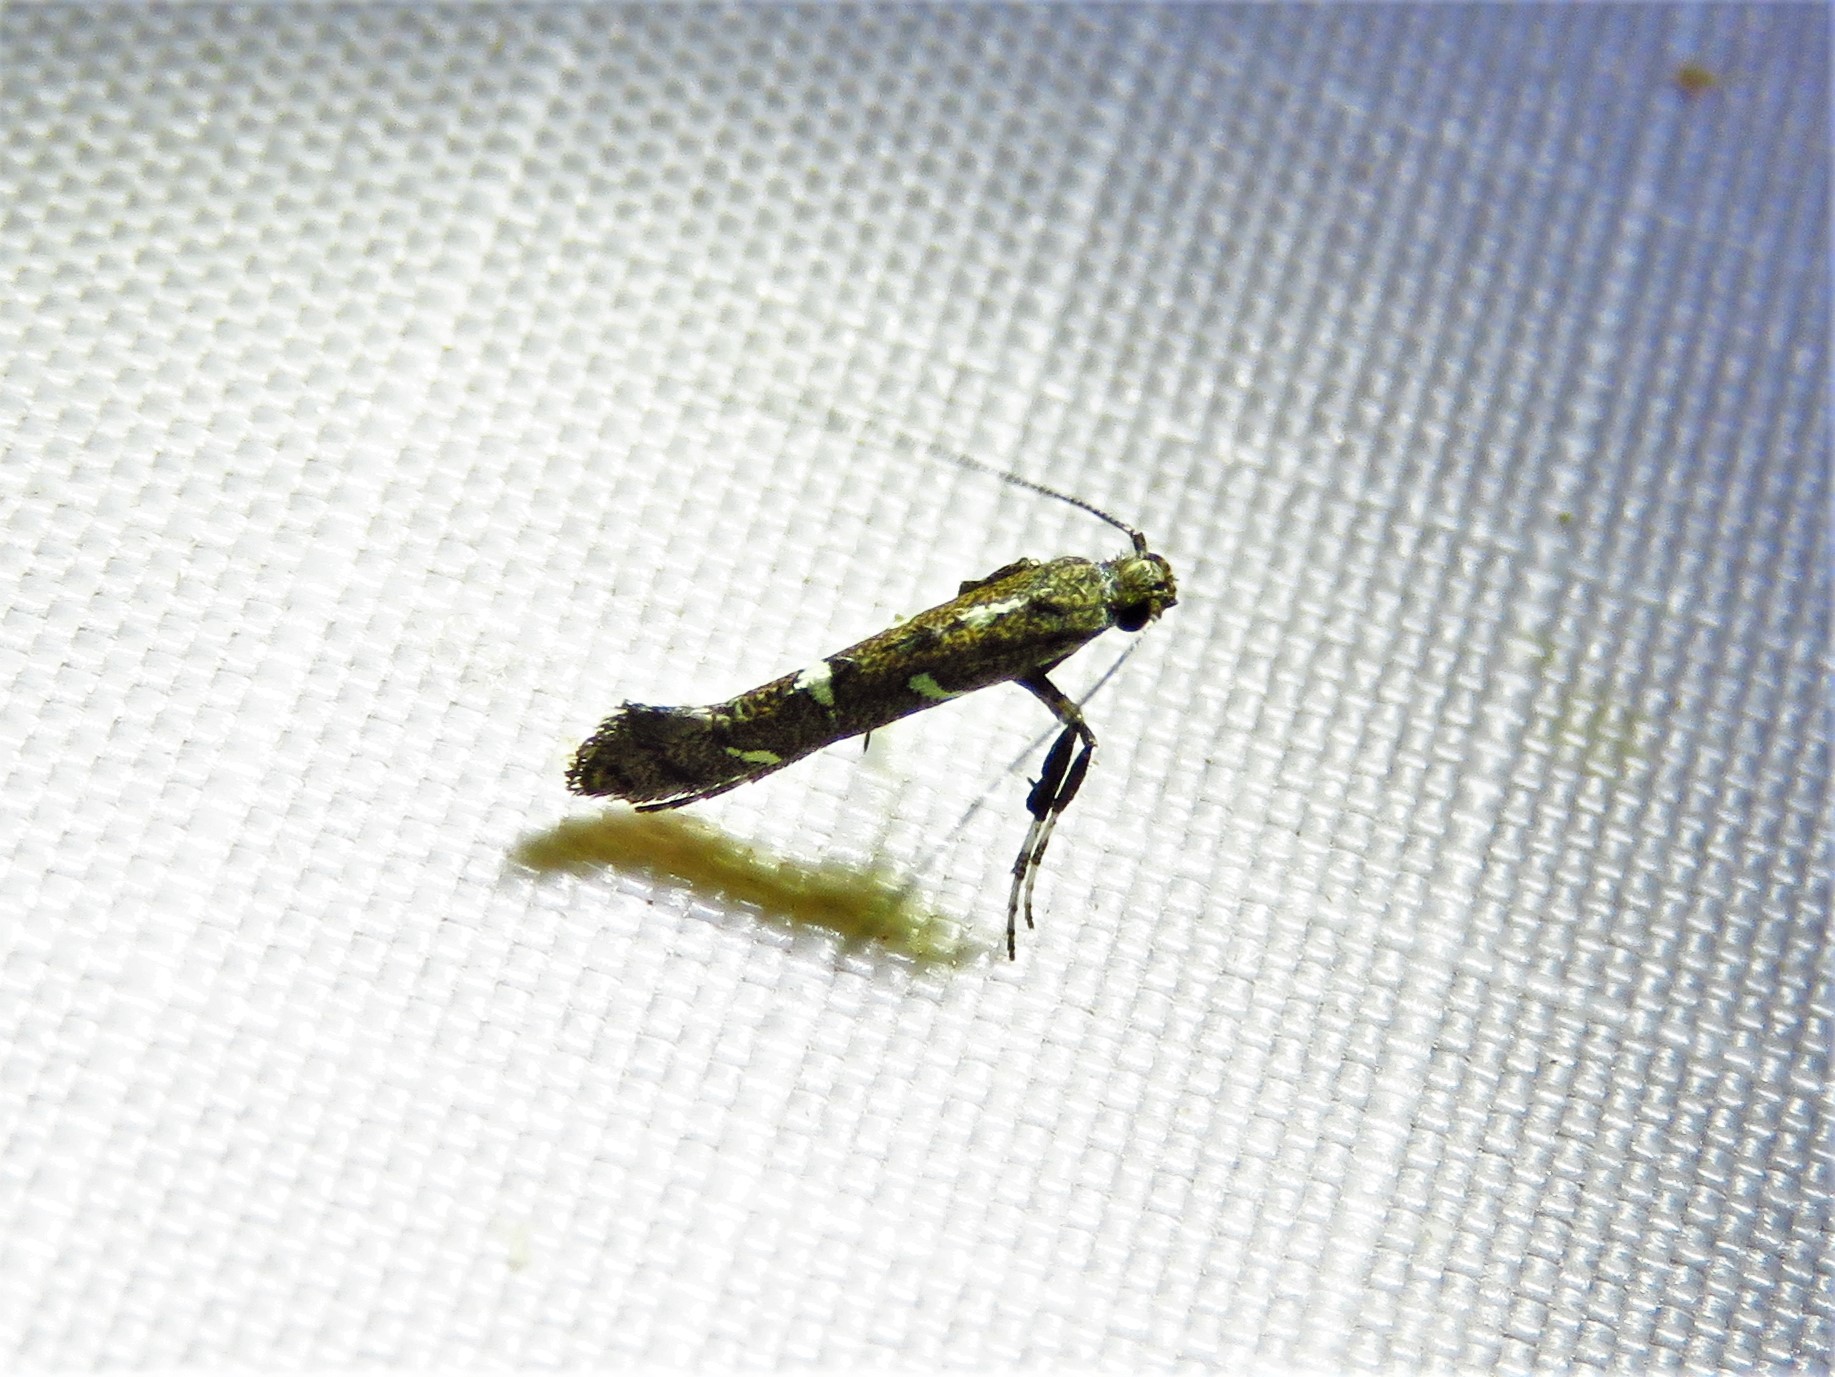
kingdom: Animalia
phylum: Arthropoda
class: Insecta
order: Lepidoptera
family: Gracillariidae
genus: Caloptilia
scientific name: Caloptilia triadicae
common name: Tallow leaf roller
